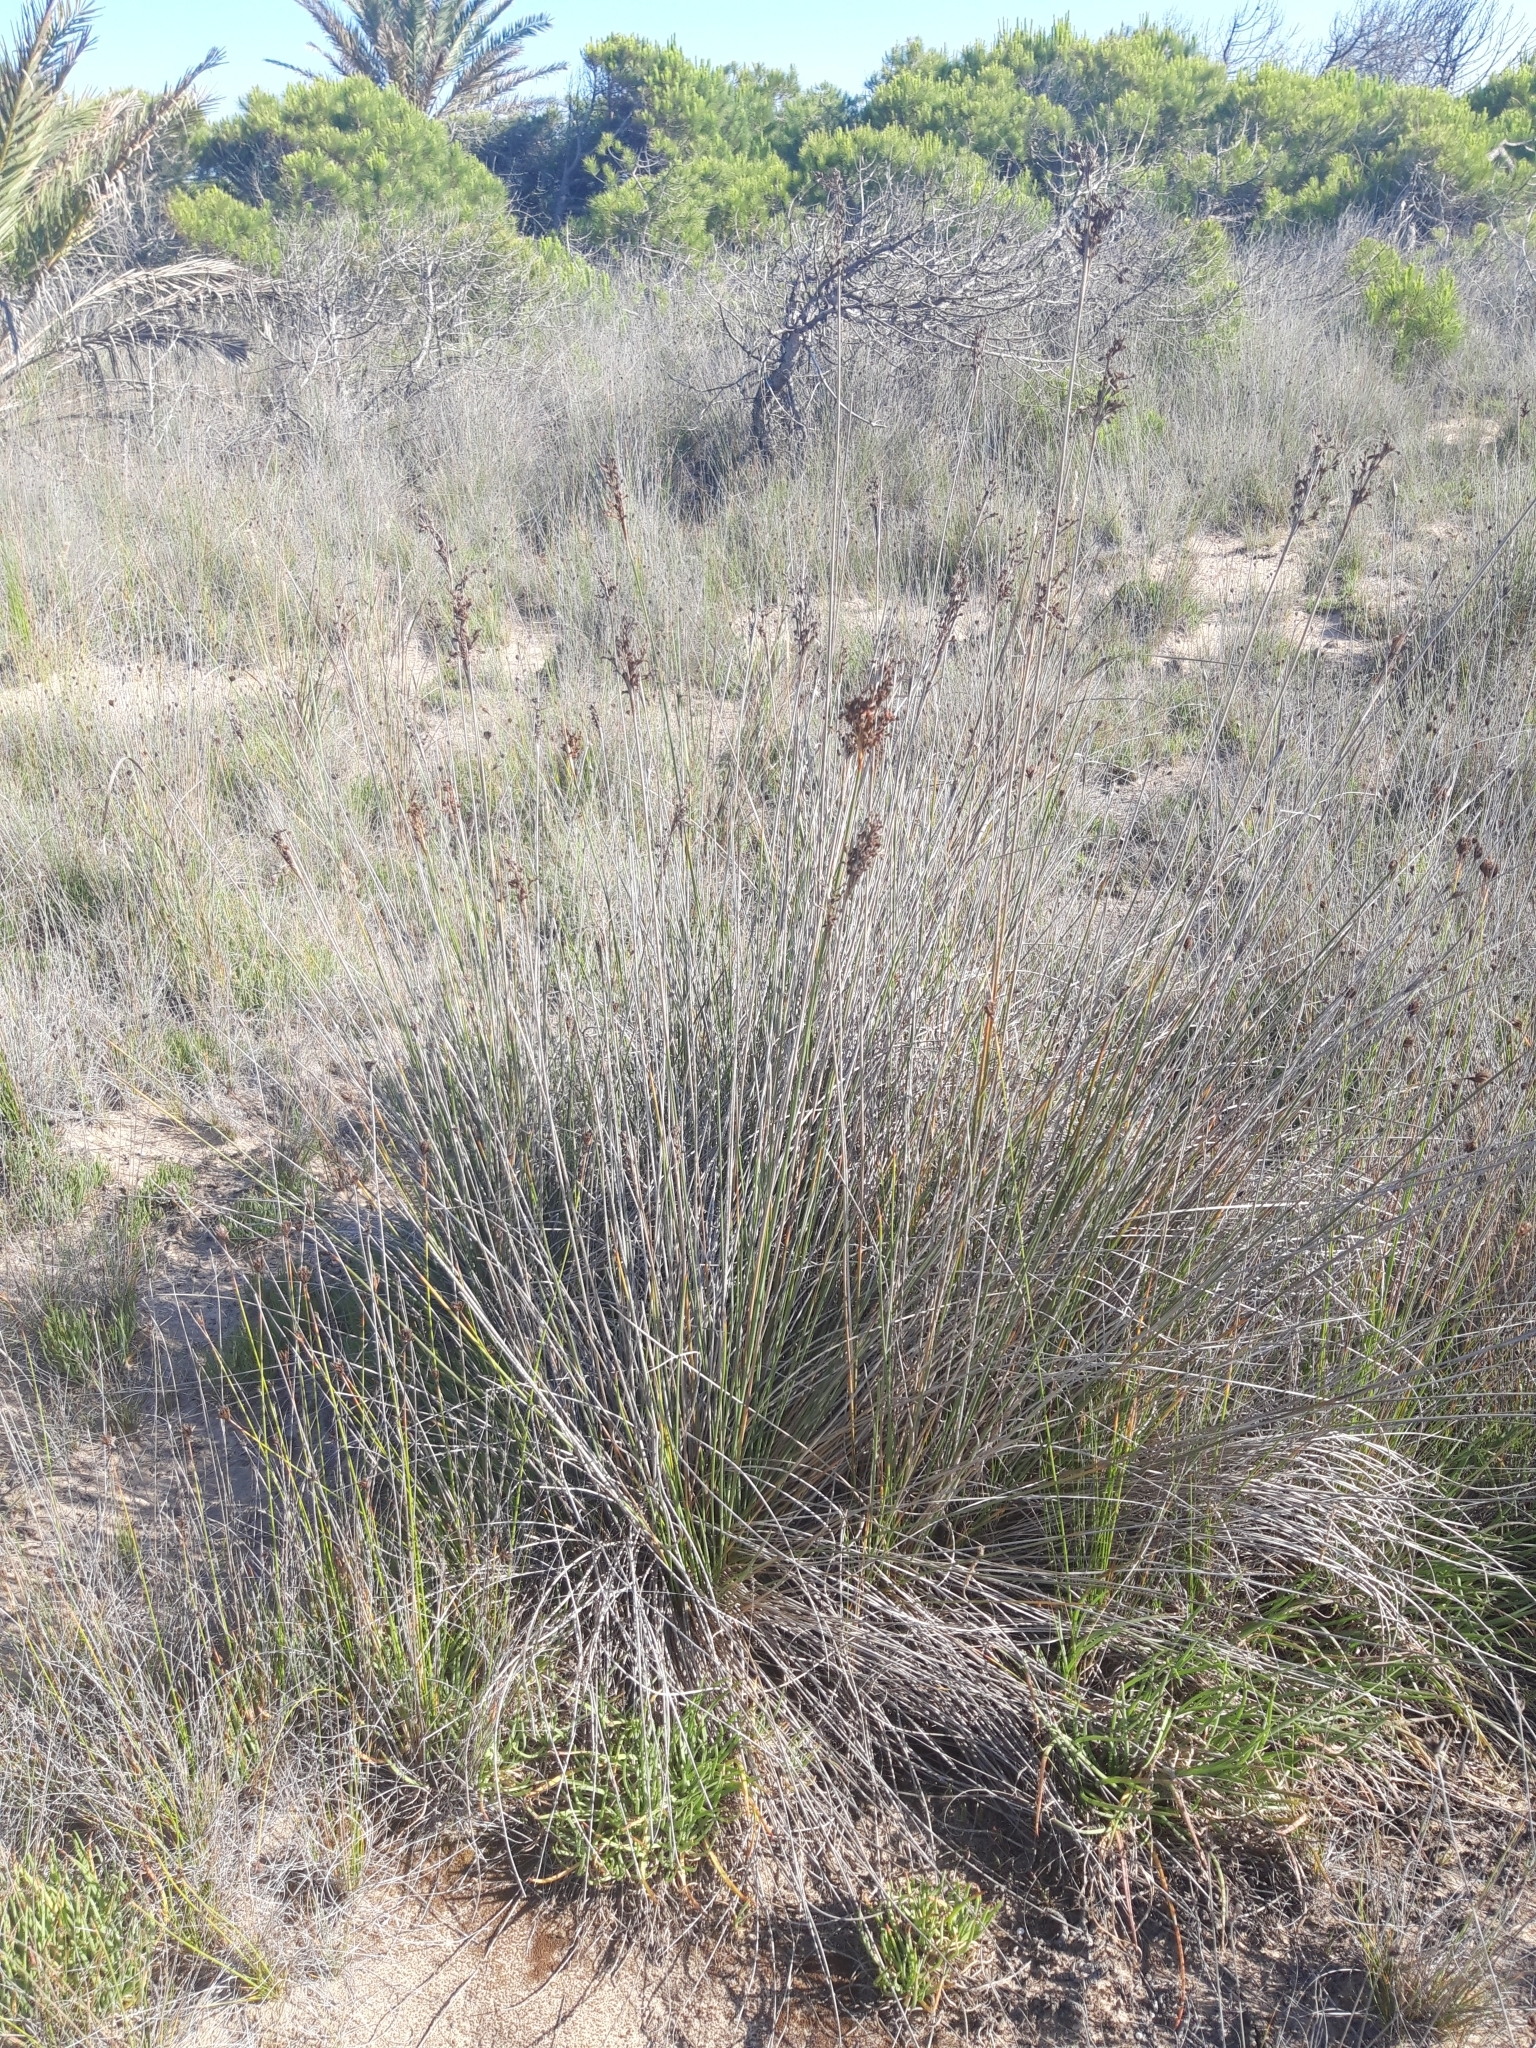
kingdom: Plantae
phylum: Tracheophyta
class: Liliopsida
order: Poales
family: Juncaceae
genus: Juncus
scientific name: Juncus acutus
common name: Sharp rush
